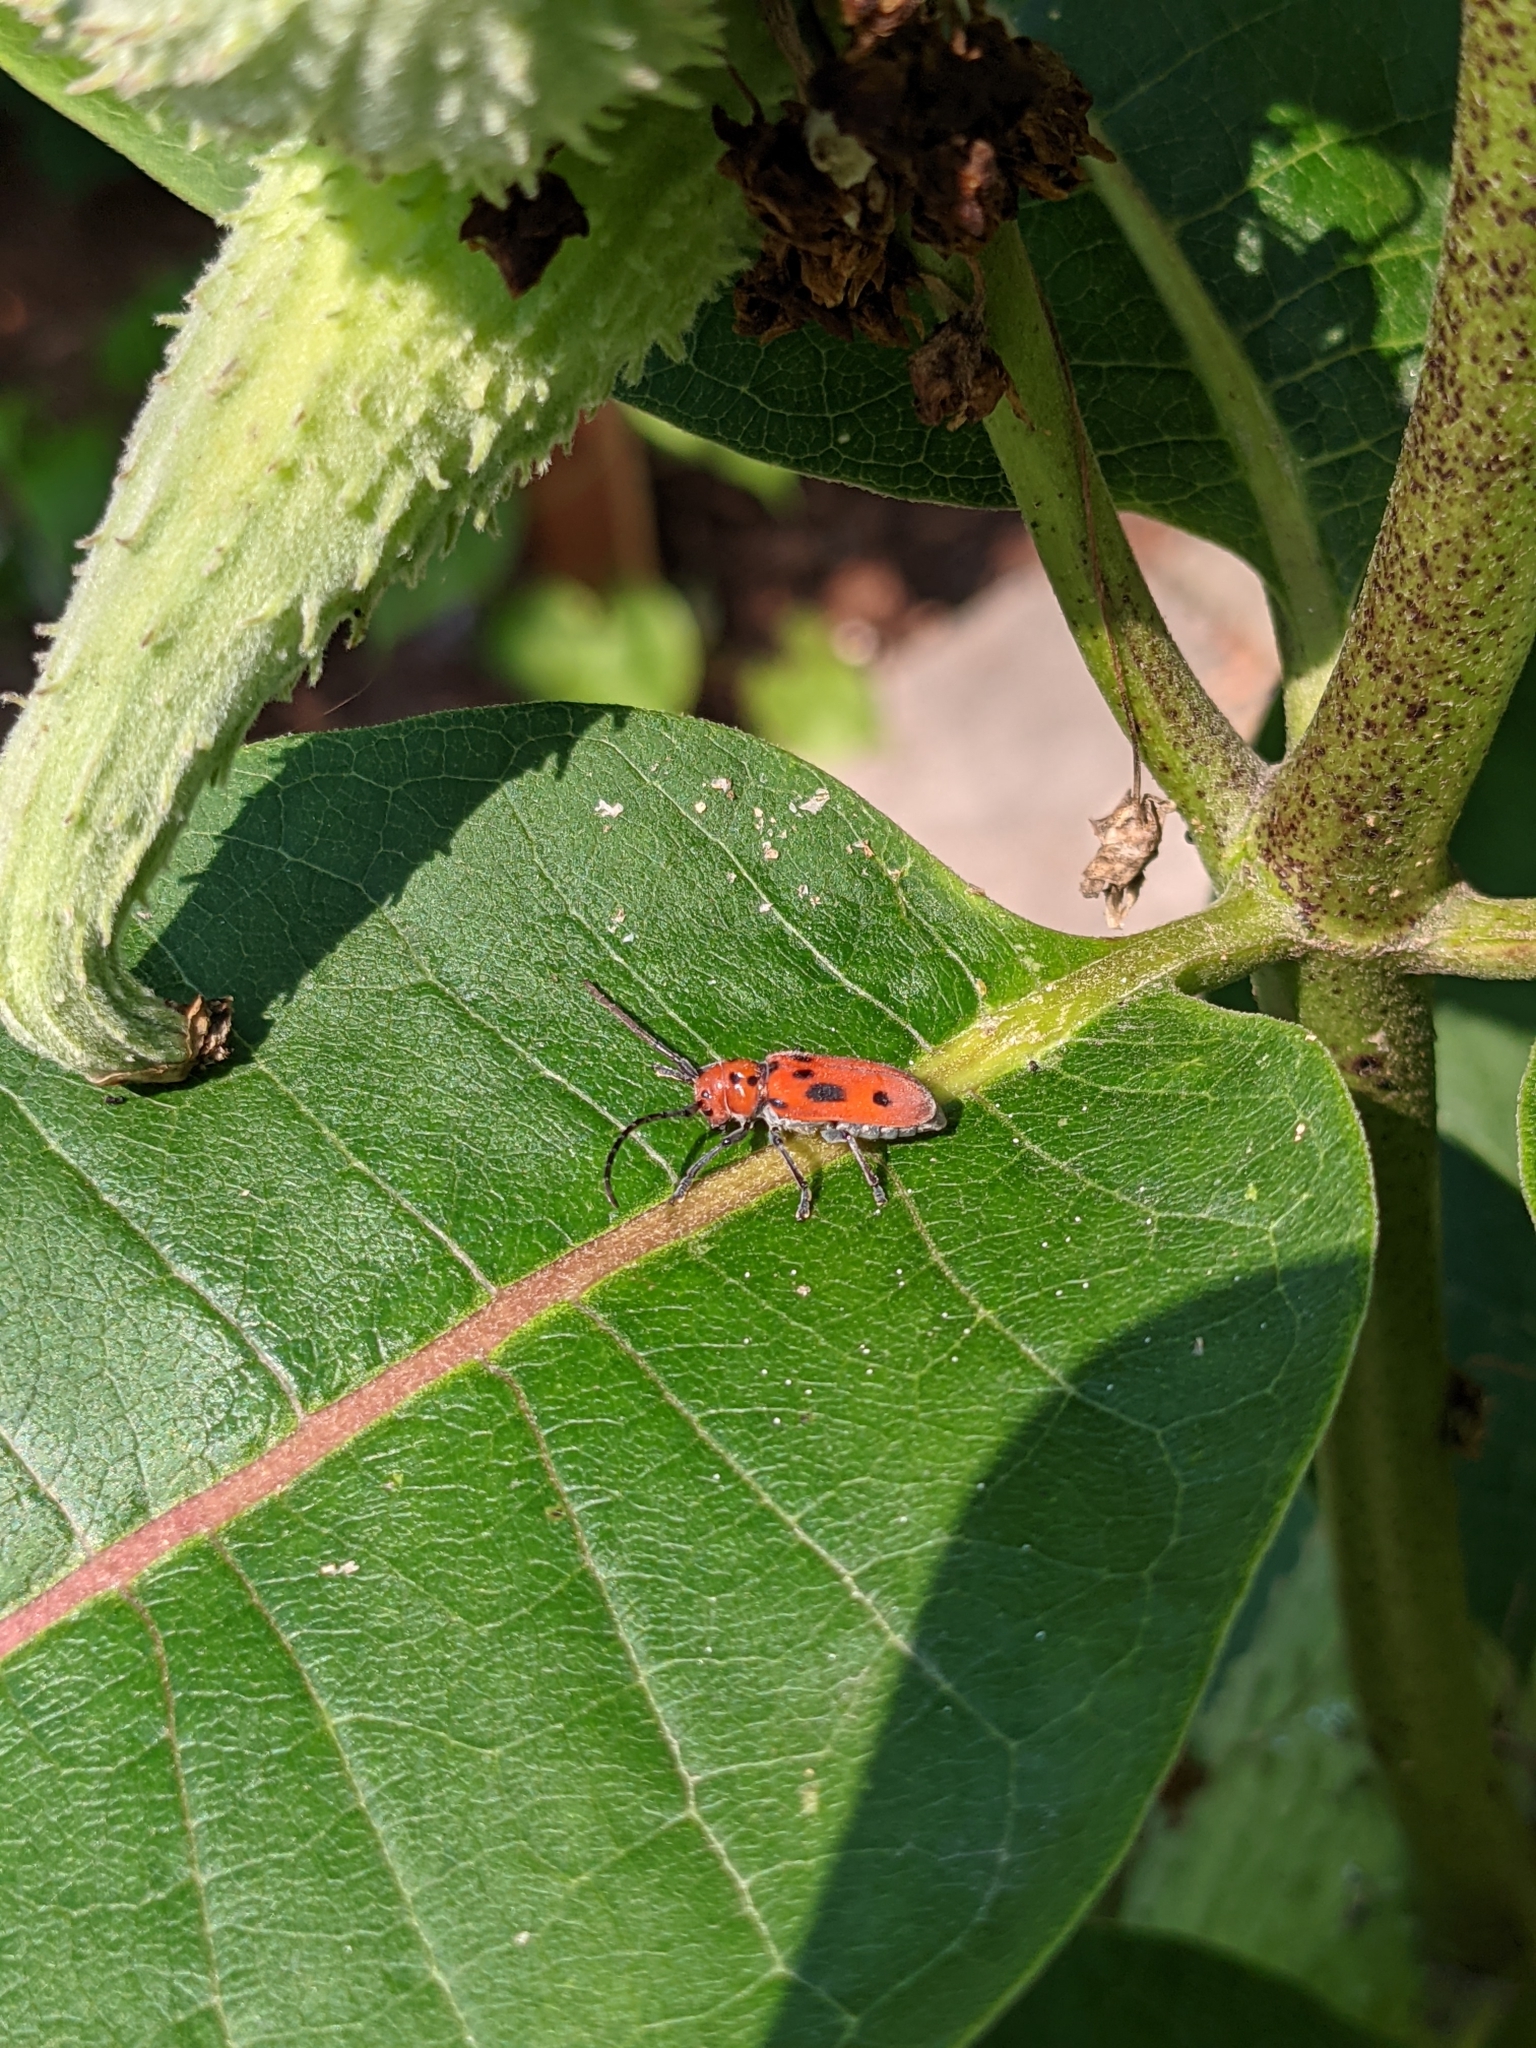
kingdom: Animalia
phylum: Arthropoda
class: Insecta
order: Coleoptera
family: Cerambycidae
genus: Tetraopes
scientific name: Tetraopes tetrophthalmus
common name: Red milkweed beetle
